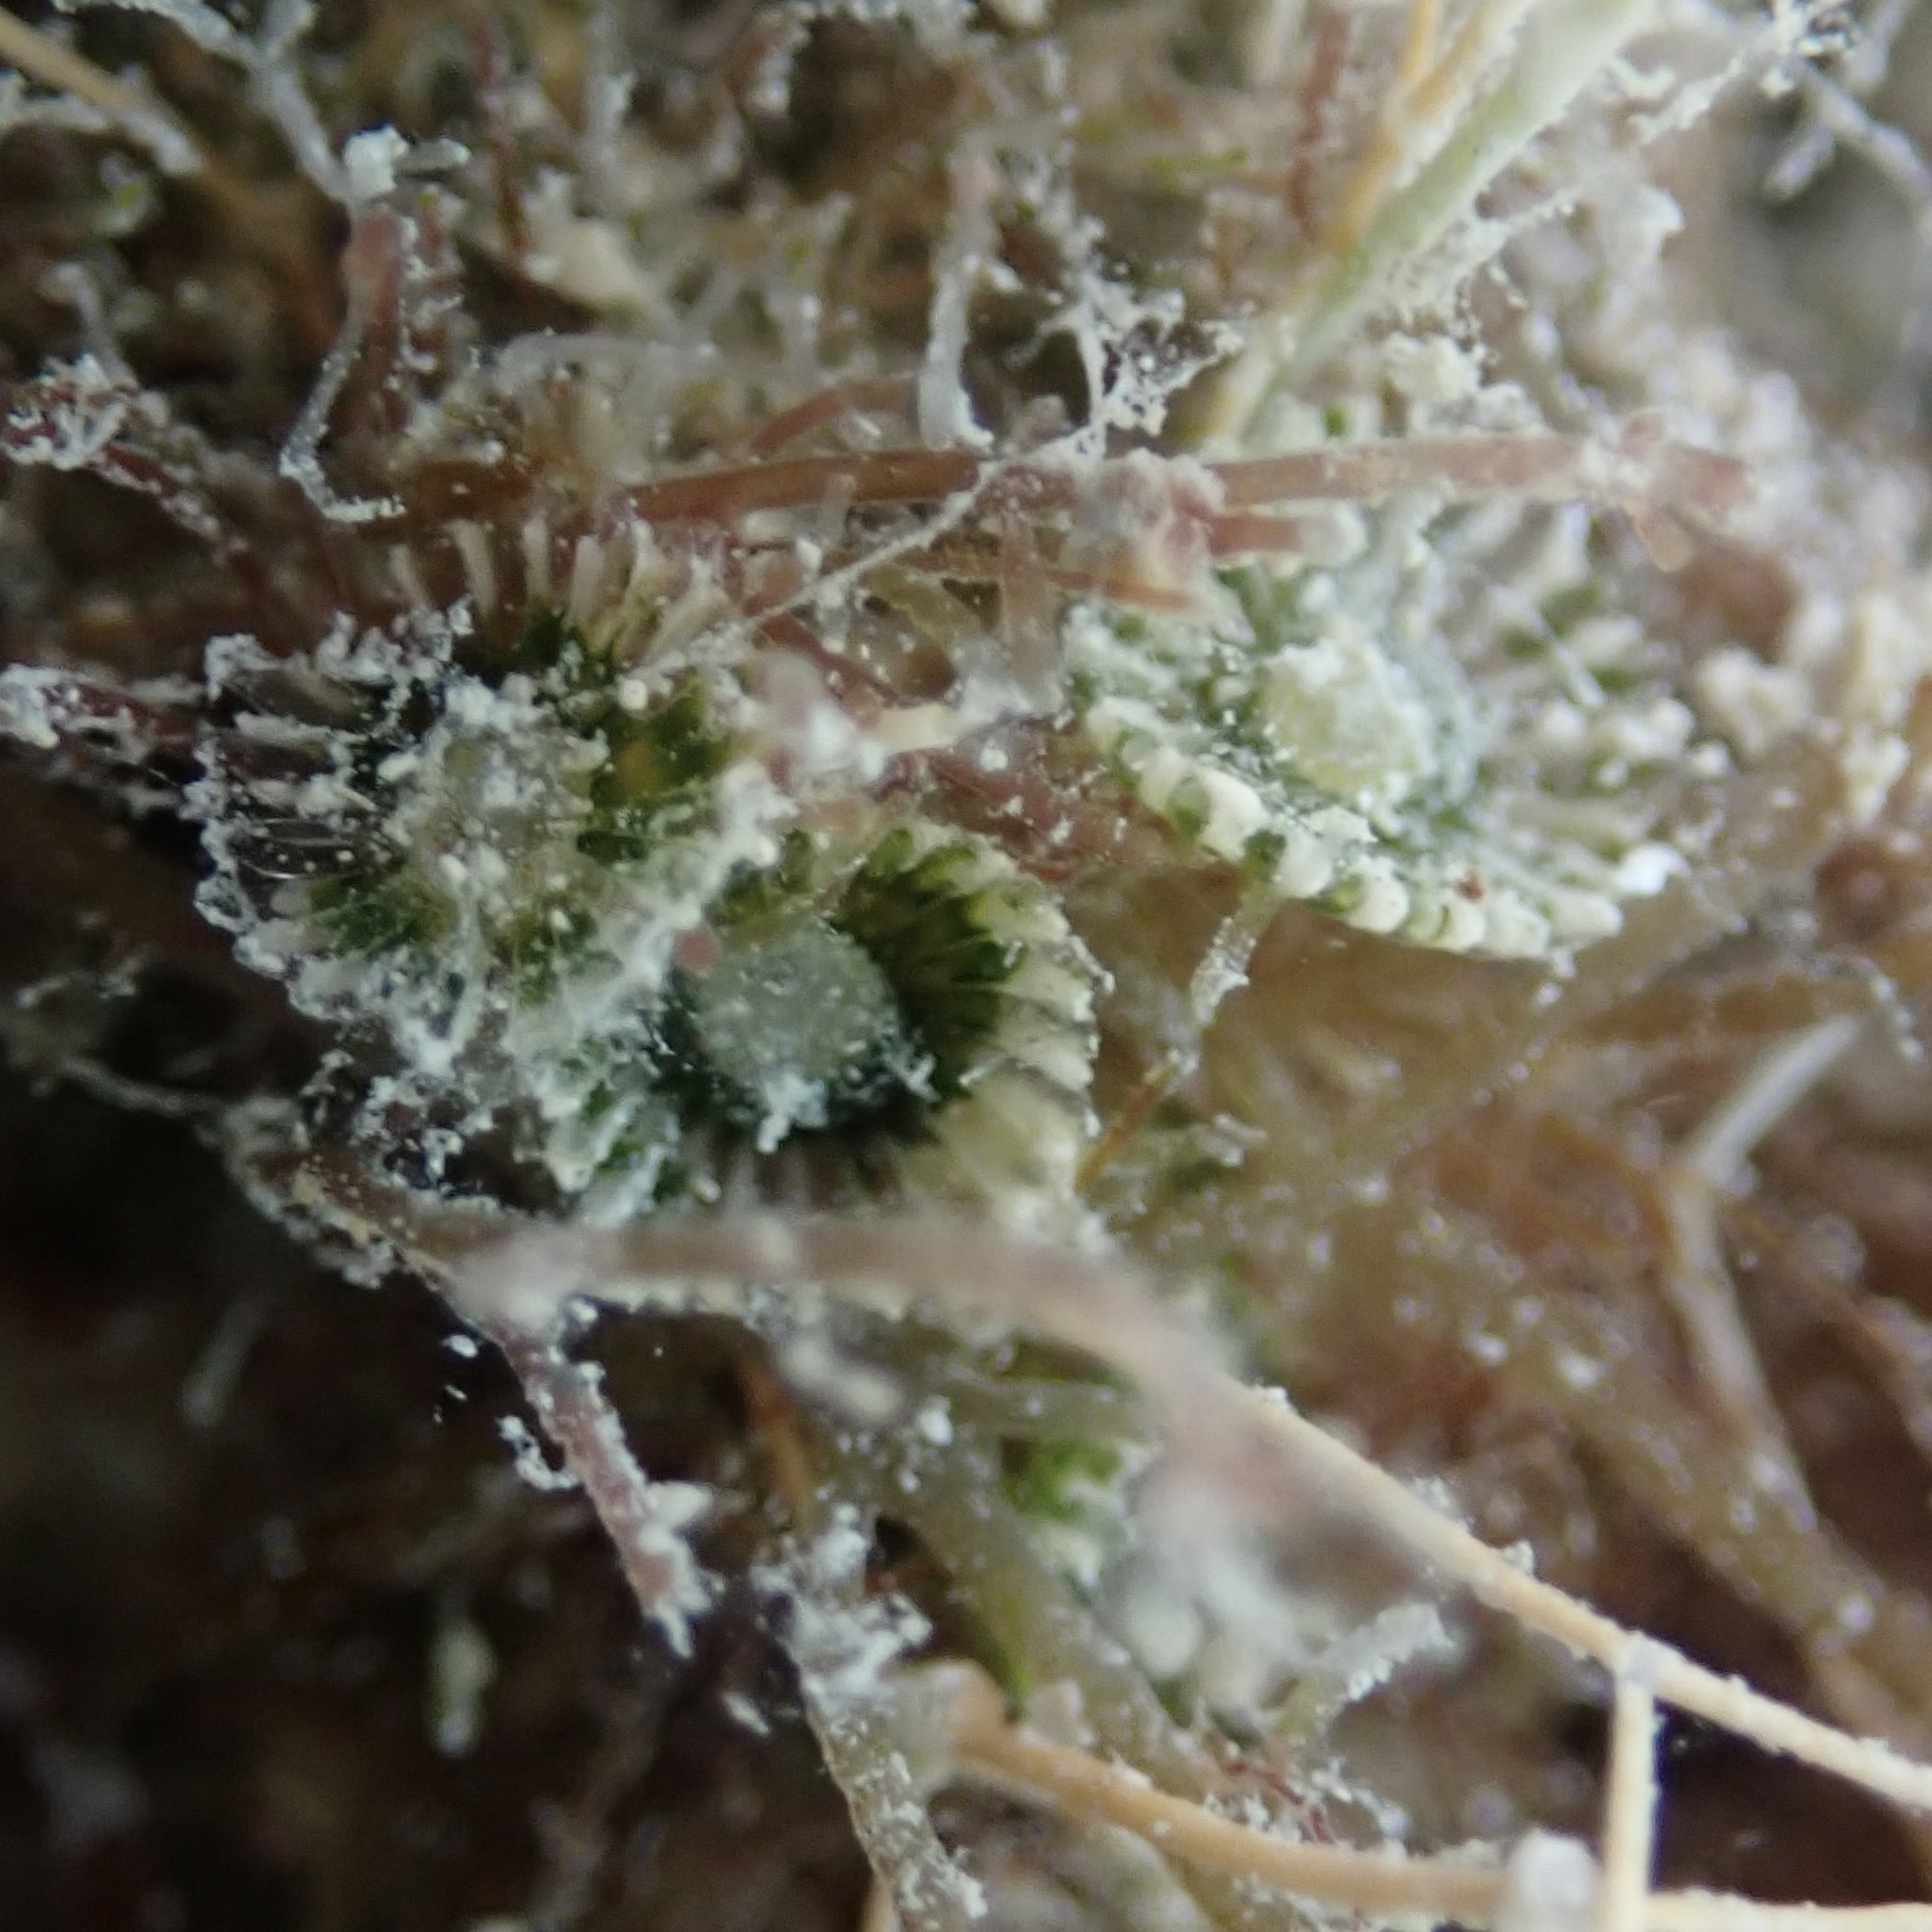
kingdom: Plantae
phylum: Chlorophyta
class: Ulvophyceae
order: Dasycladales
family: Polyphysaceae
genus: Chalmasia
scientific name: Chalmasia antillana
